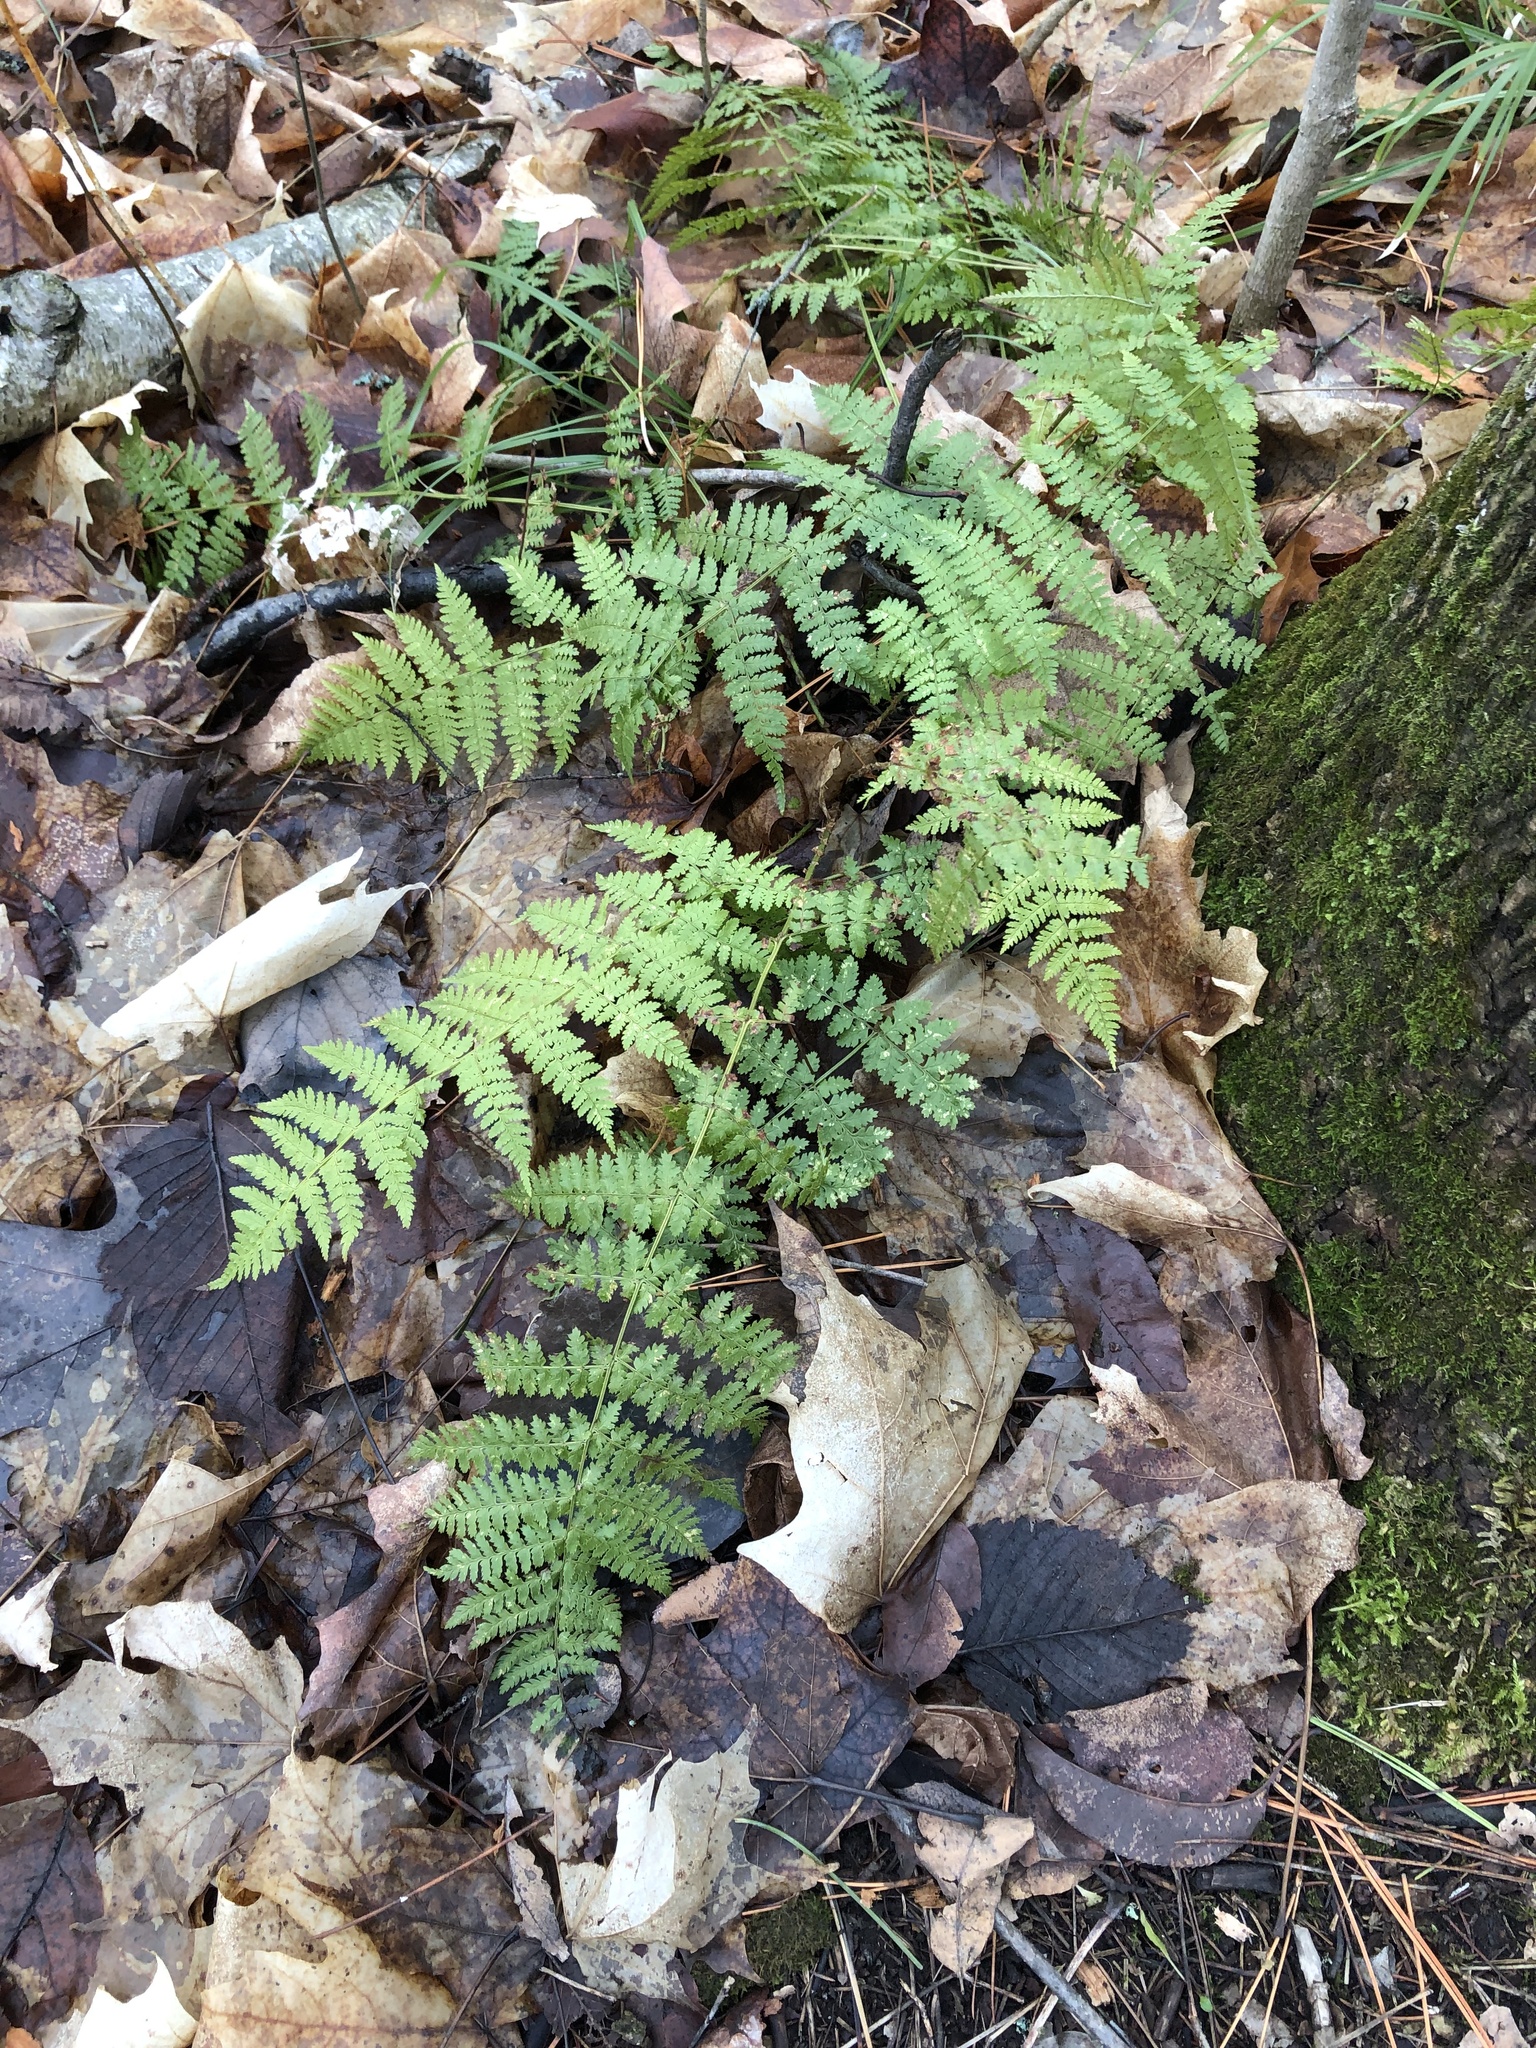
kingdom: Plantae
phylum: Tracheophyta
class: Polypodiopsida
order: Polypodiales
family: Dryopteridaceae
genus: Dryopteris
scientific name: Dryopteris intermedia
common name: Evergreen wood fern
